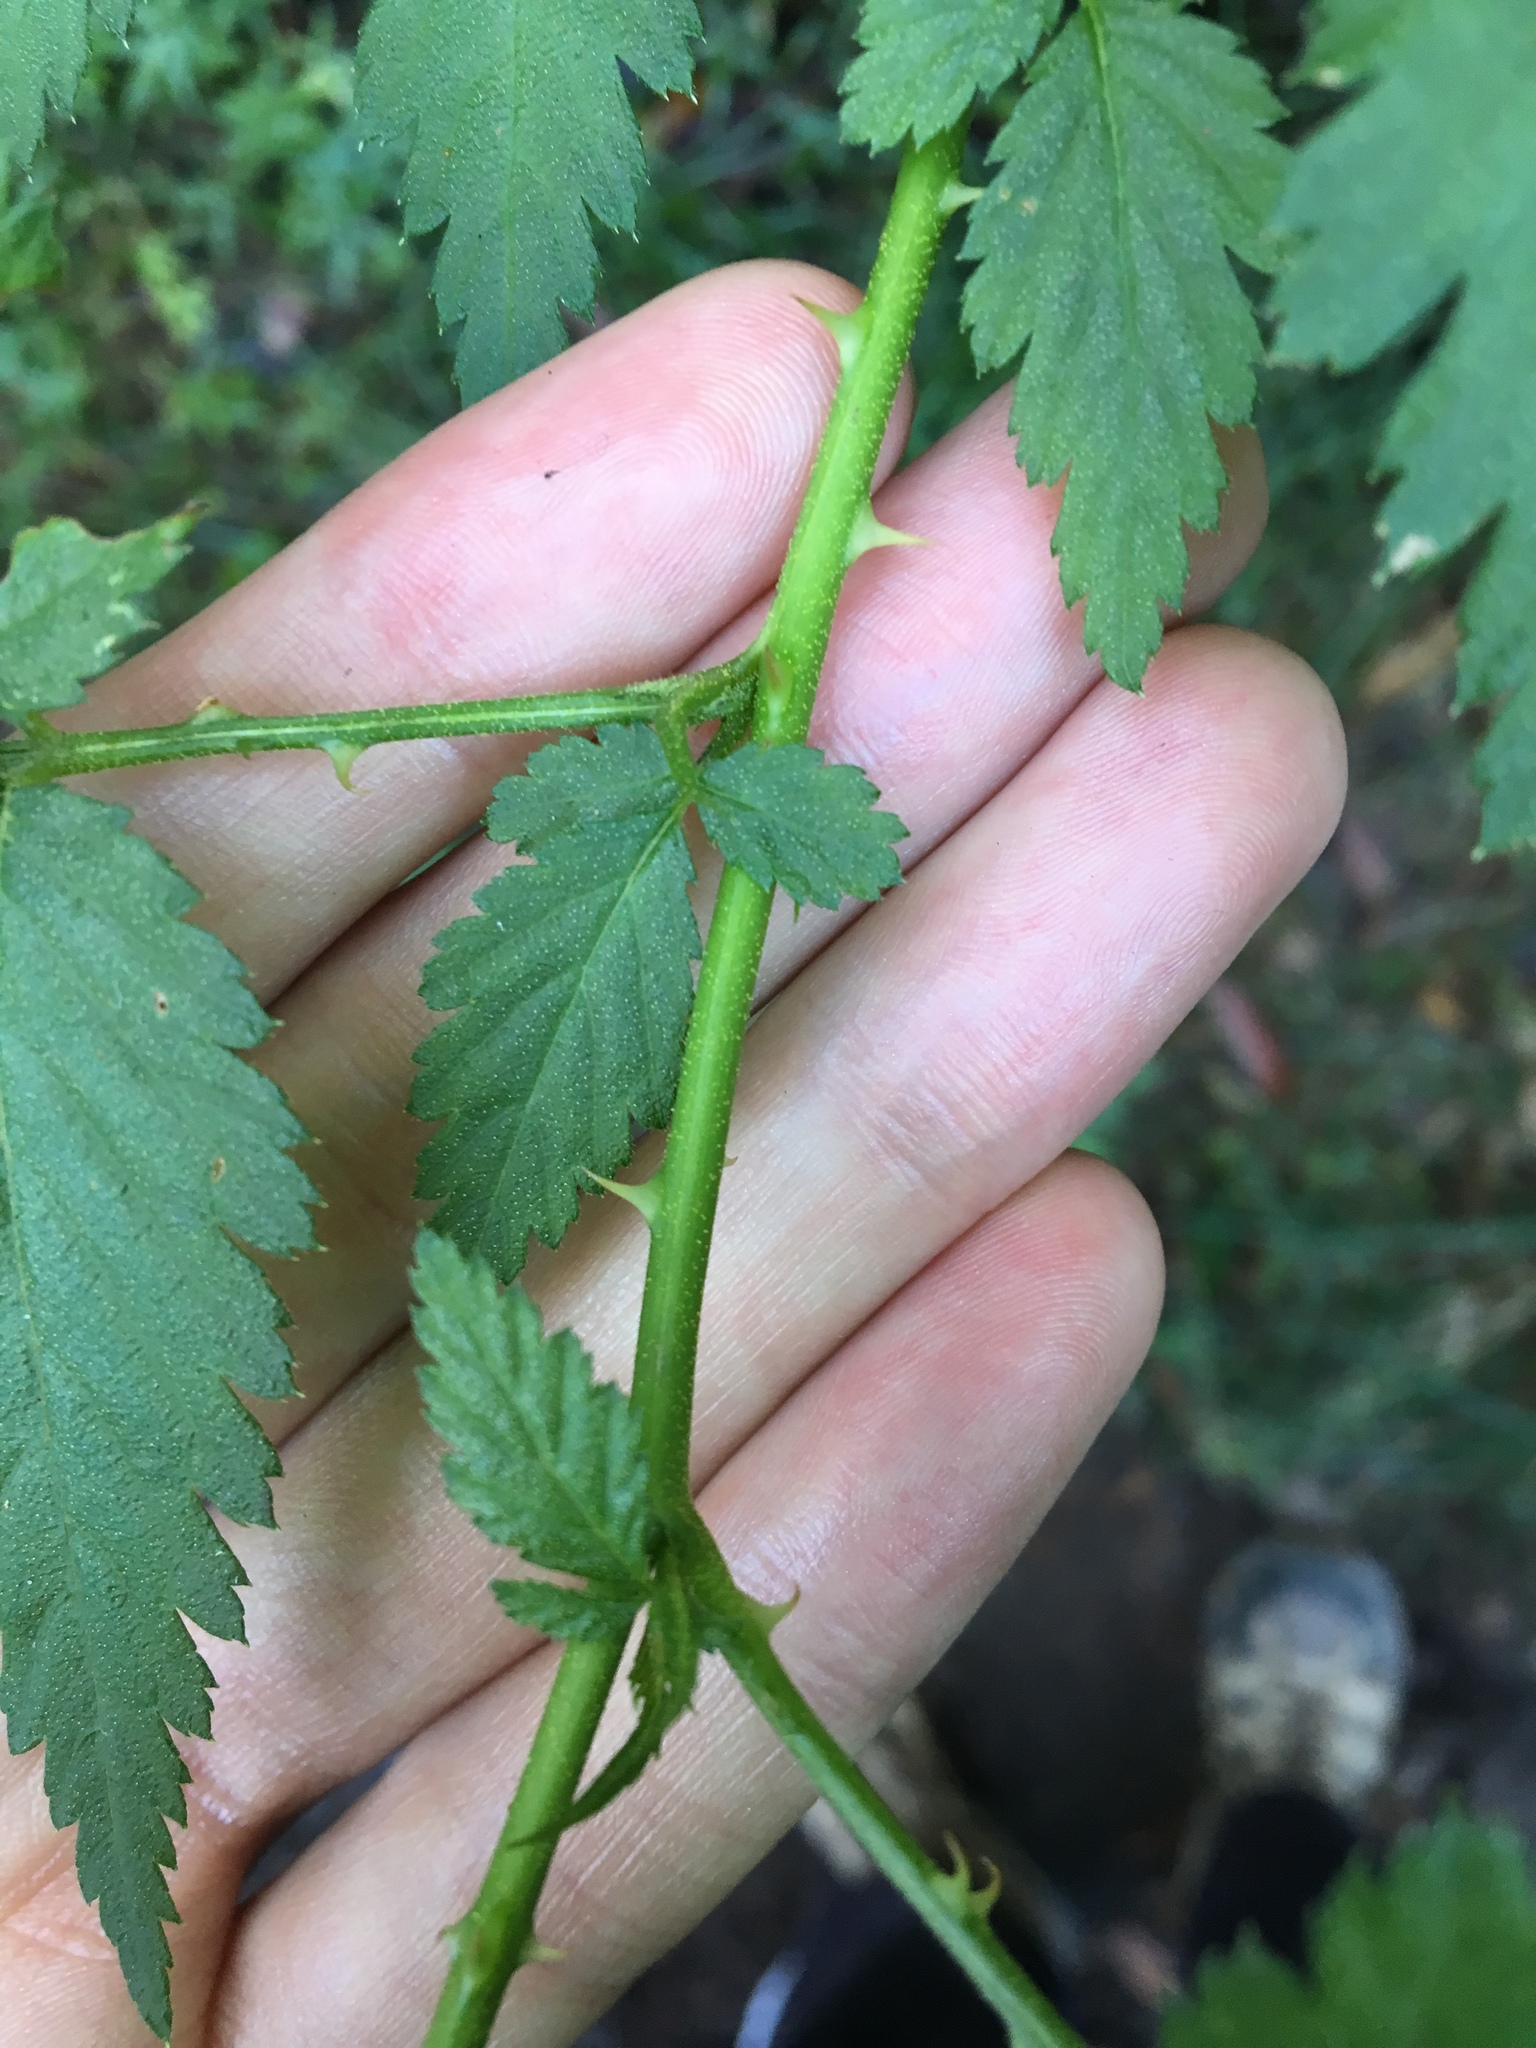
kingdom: Plantae
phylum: Tracheophyta
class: Magnoliopsida
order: Rosales
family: Rosaceae
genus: Rubus
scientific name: Rubus rosifolius
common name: Roseleaf raspberry
